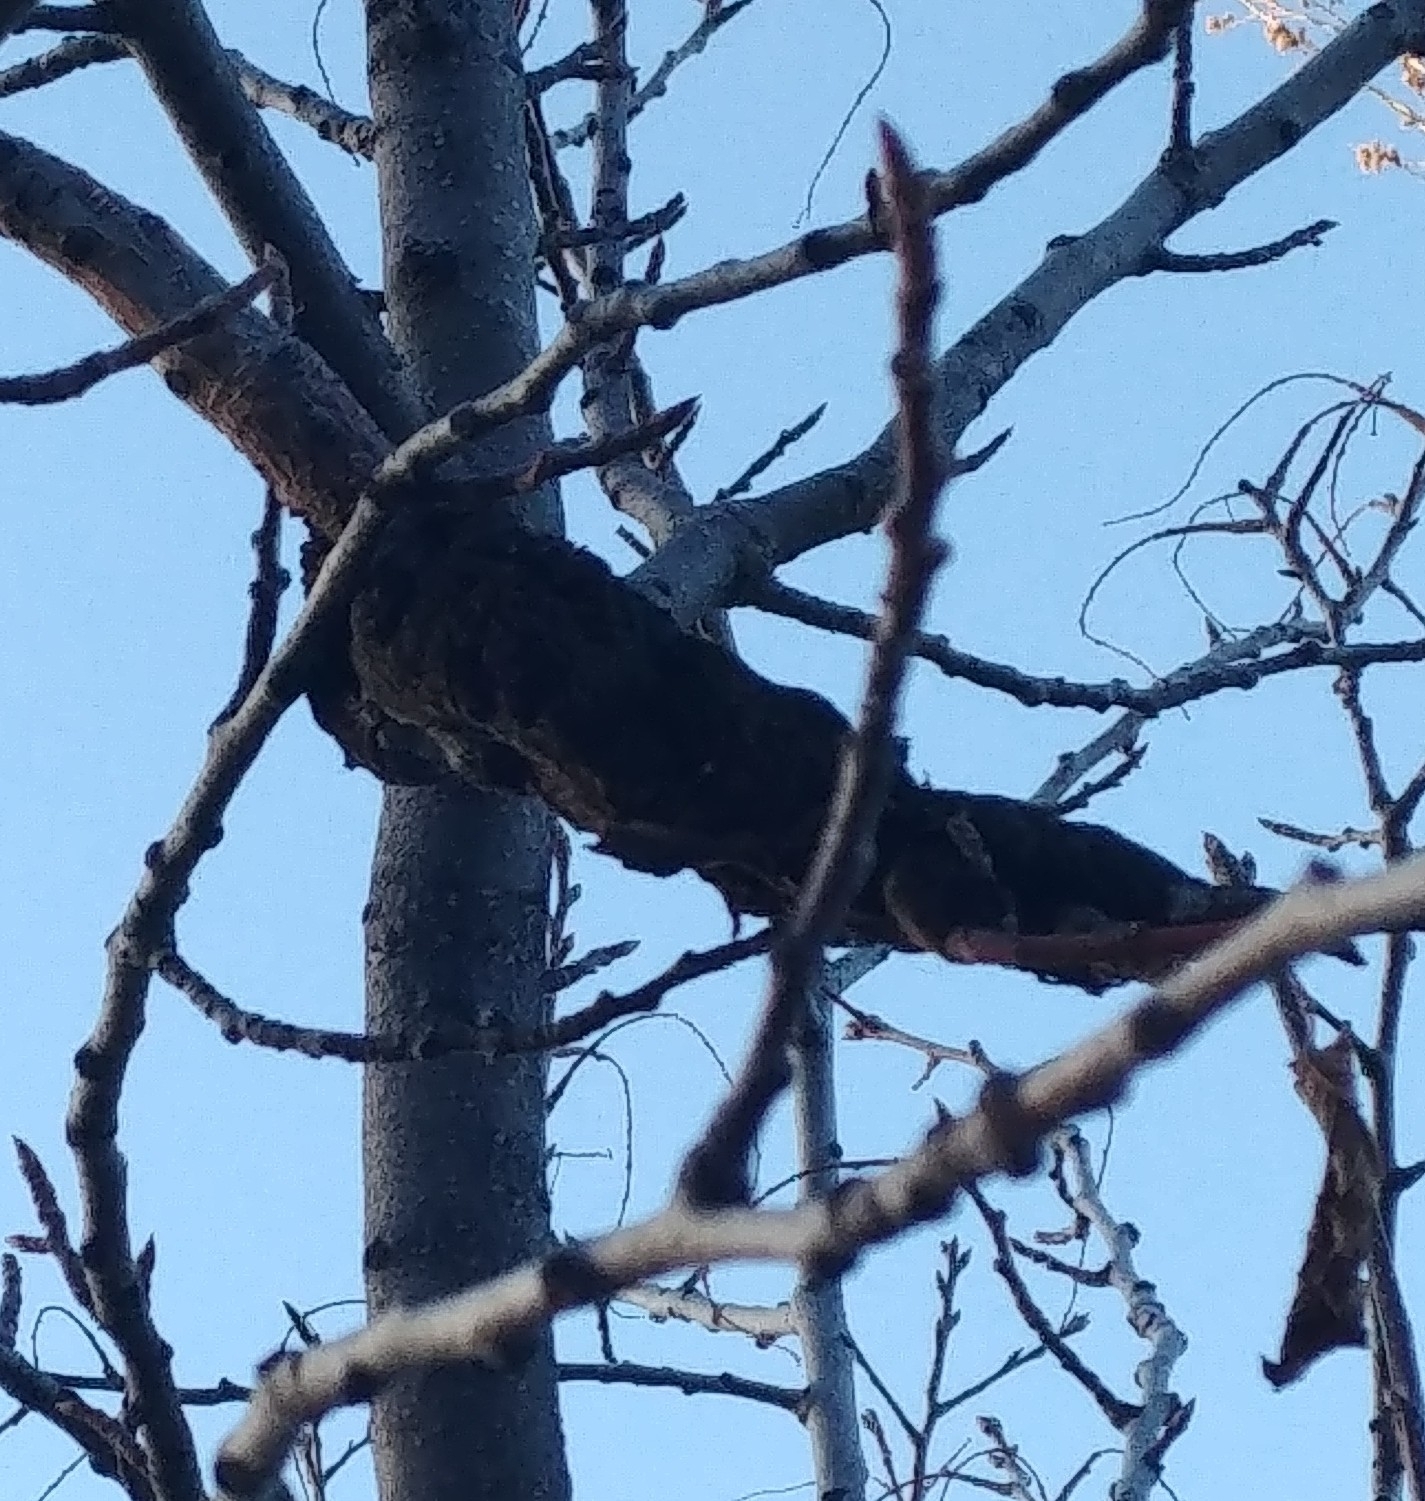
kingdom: Fungi
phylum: Ascomycota
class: Dothideomycetes
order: Venturiales
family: Venturiaceae
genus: Apiosporina
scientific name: Apiosporina morbosa
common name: Black knot
